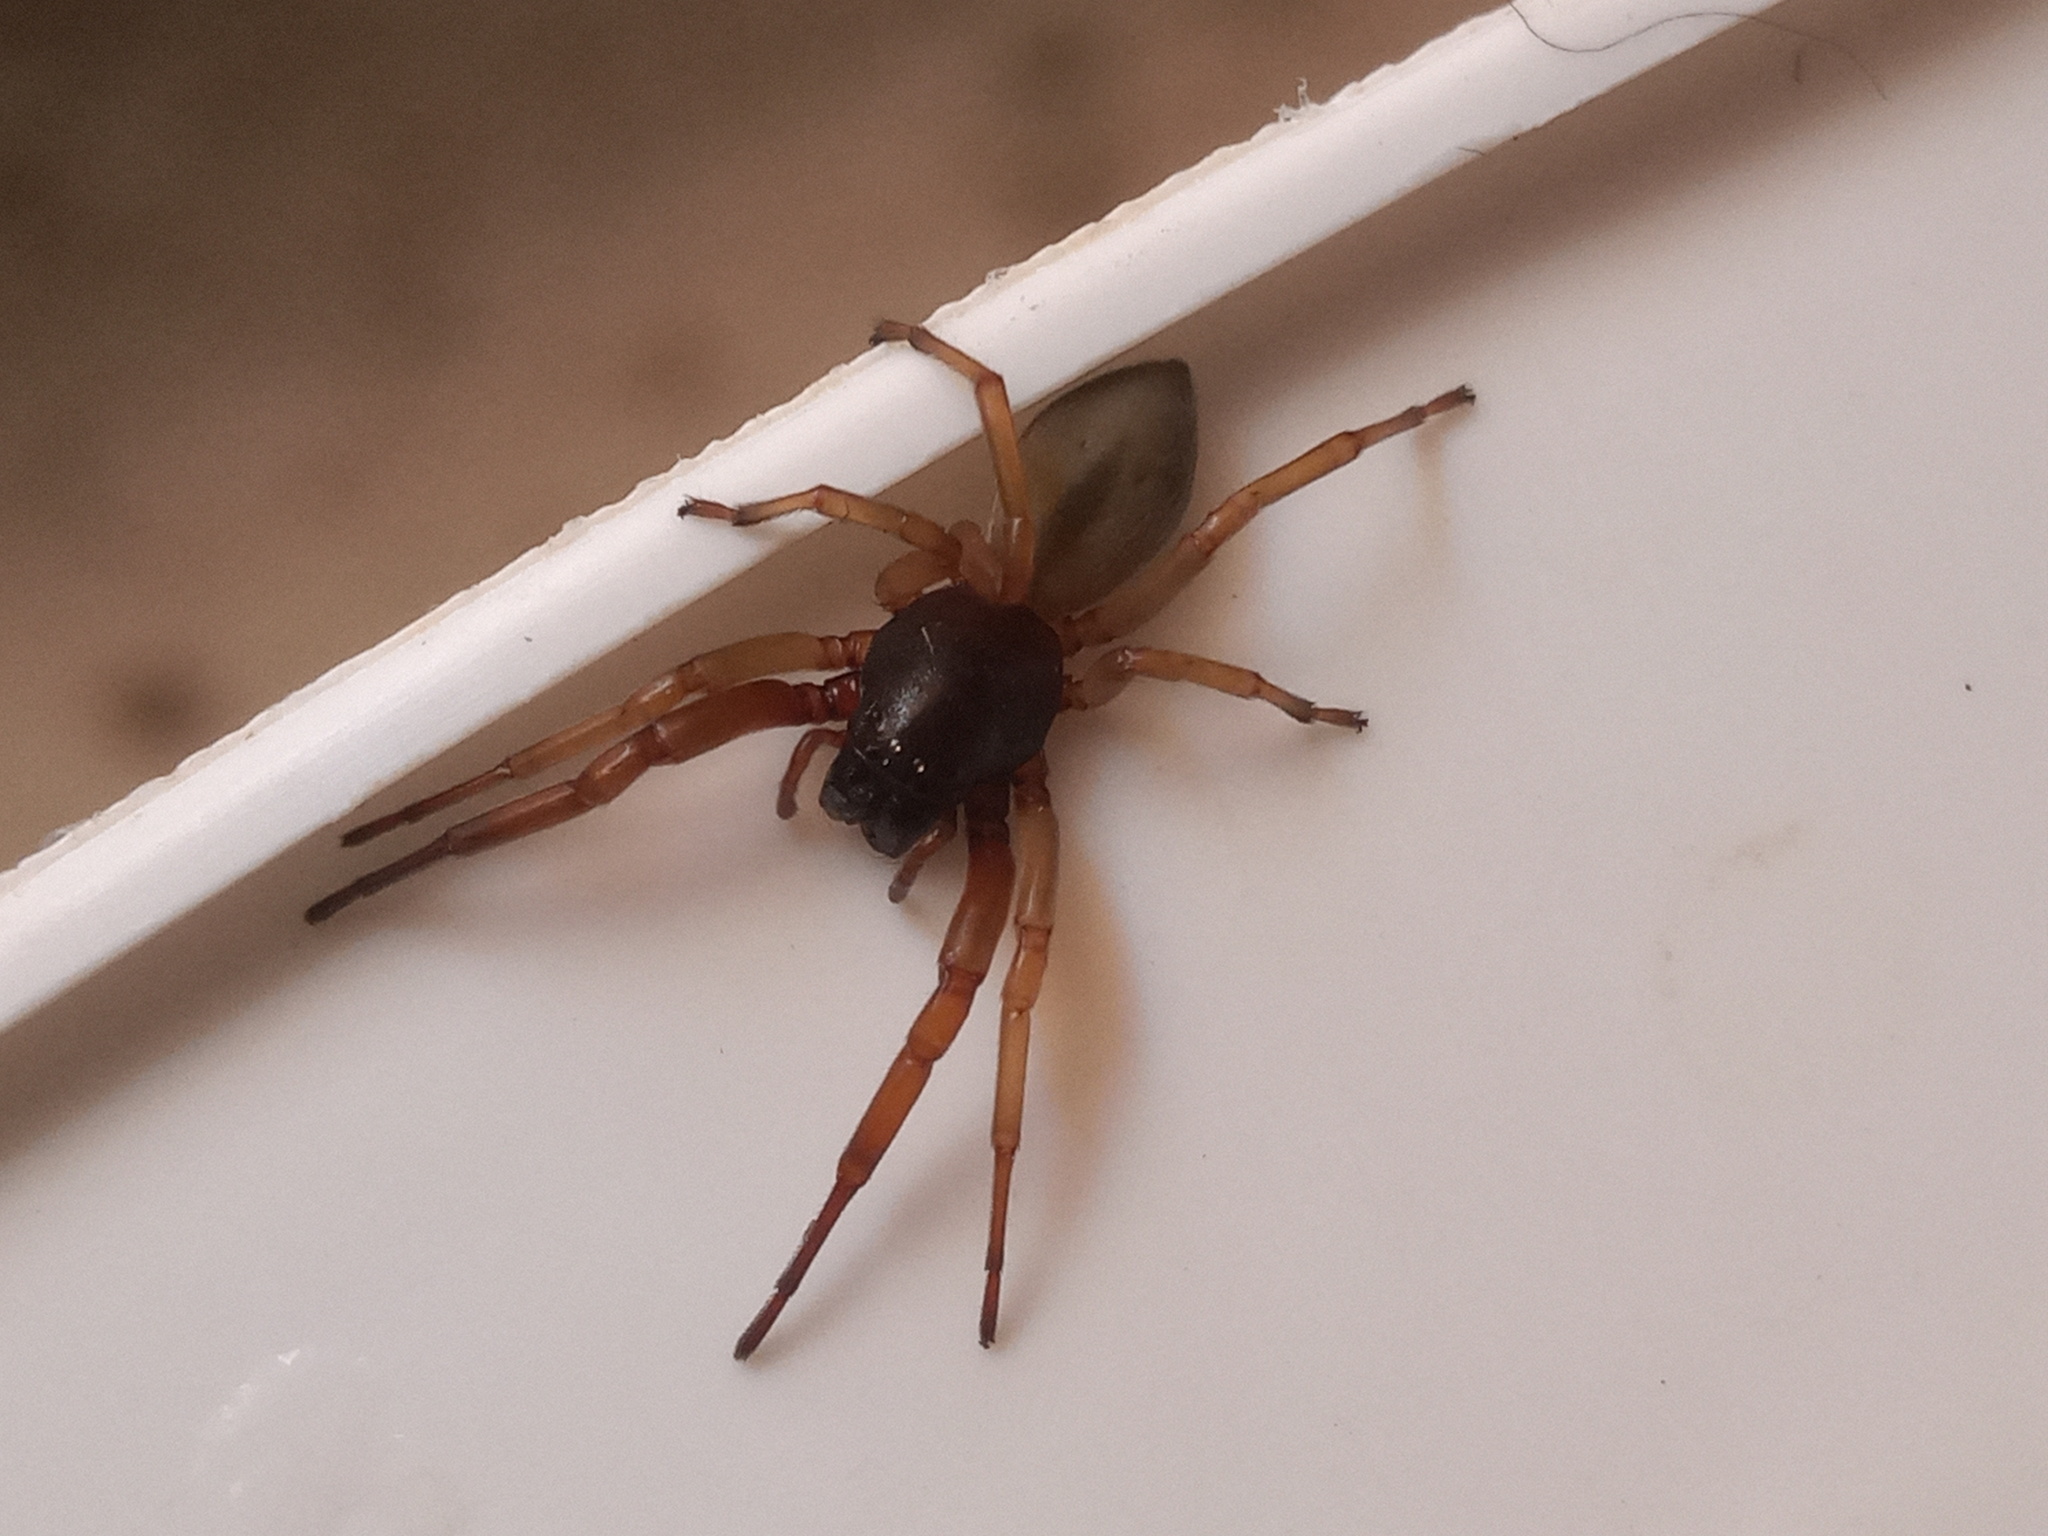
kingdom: Animalia
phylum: Arthropoda
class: Arachnida
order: Araneae
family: Trachelidae
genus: Trachelas
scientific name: Trachelas volutus
